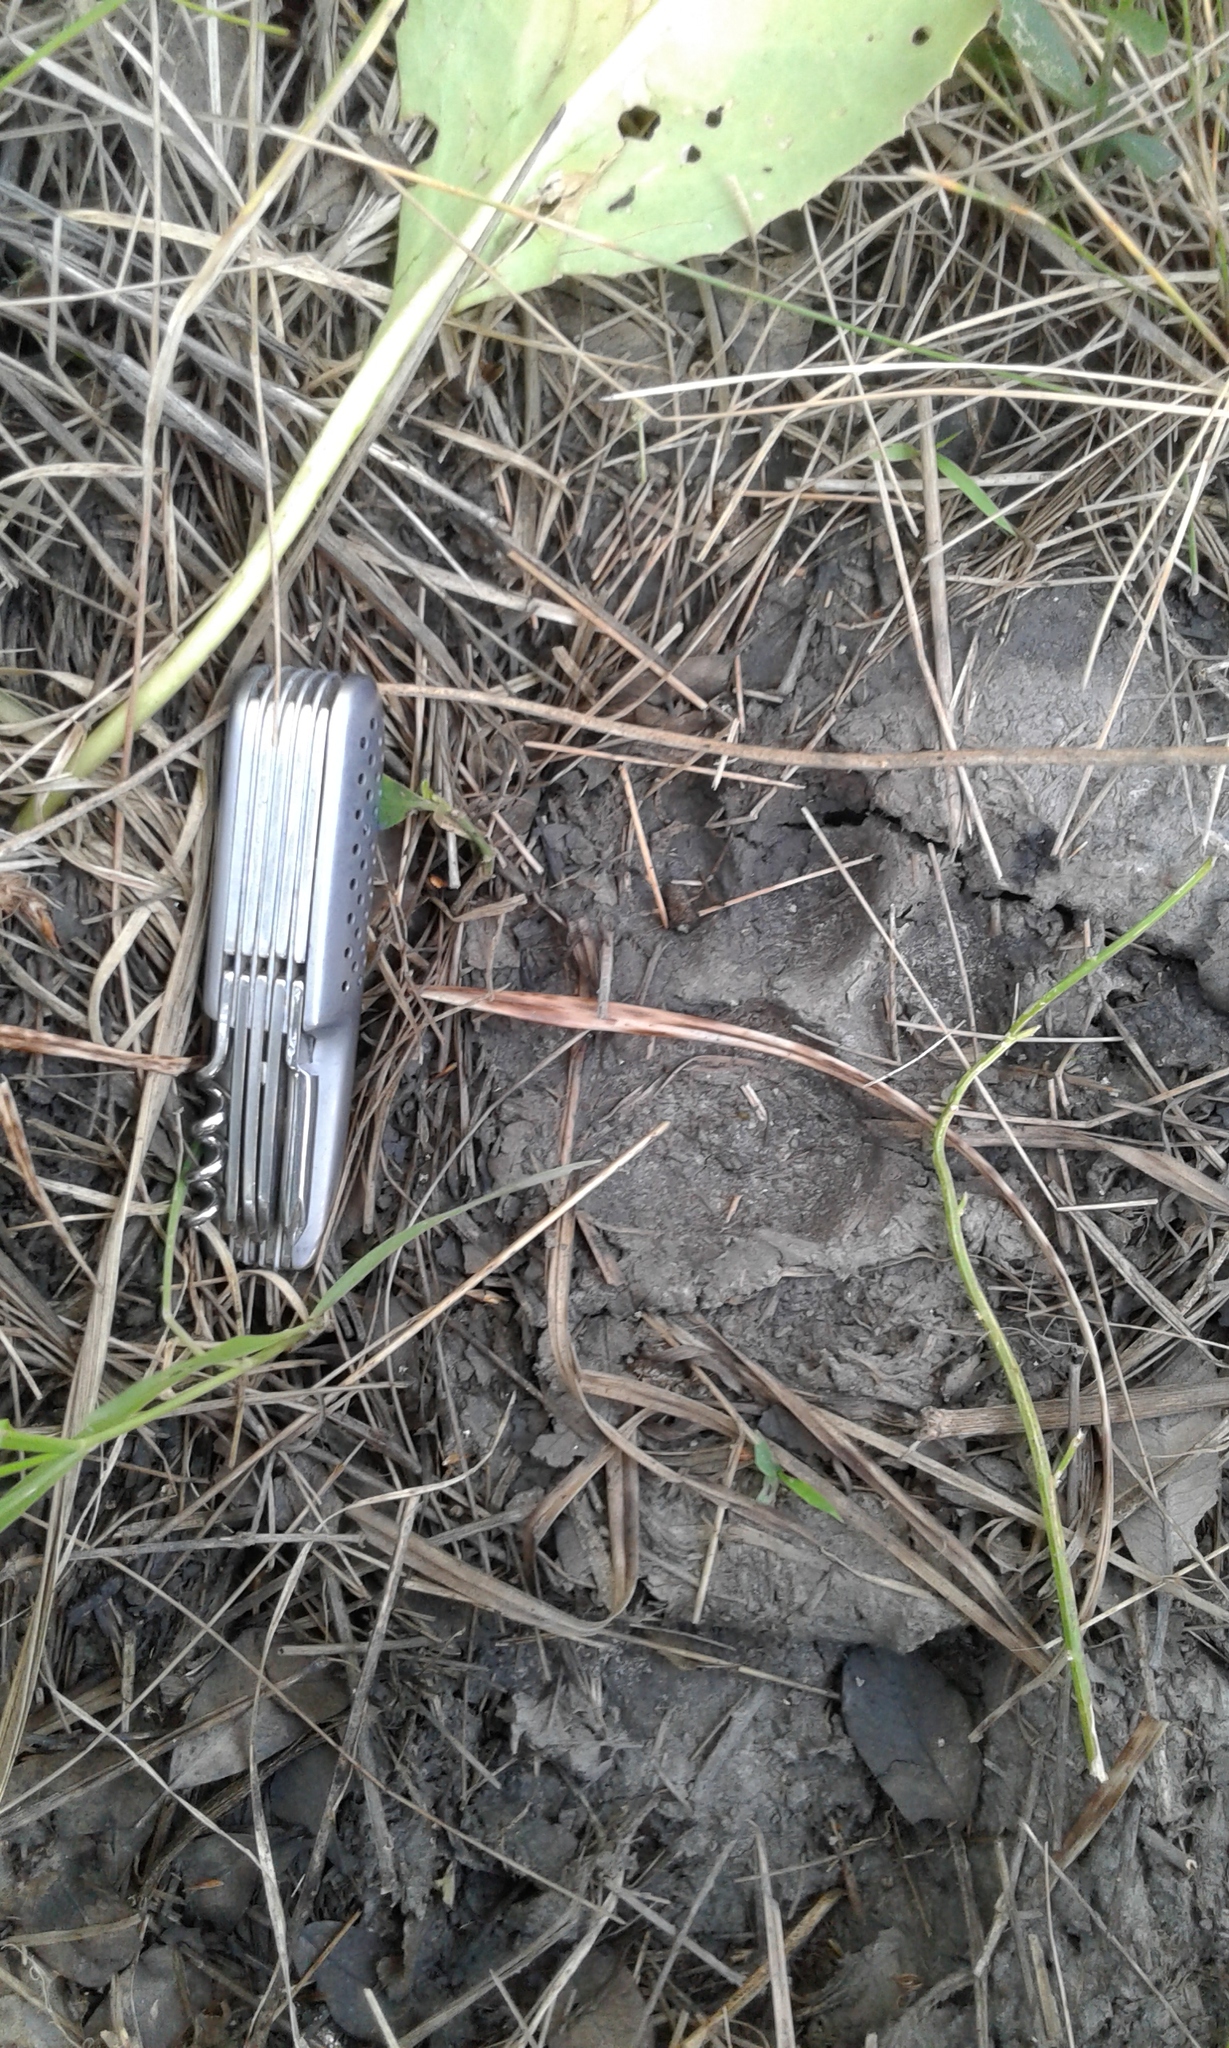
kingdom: Animalia
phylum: Chordata
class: Mammalia
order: Carnivora
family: Felidae
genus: Puma
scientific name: Puma concolor
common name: Puma
